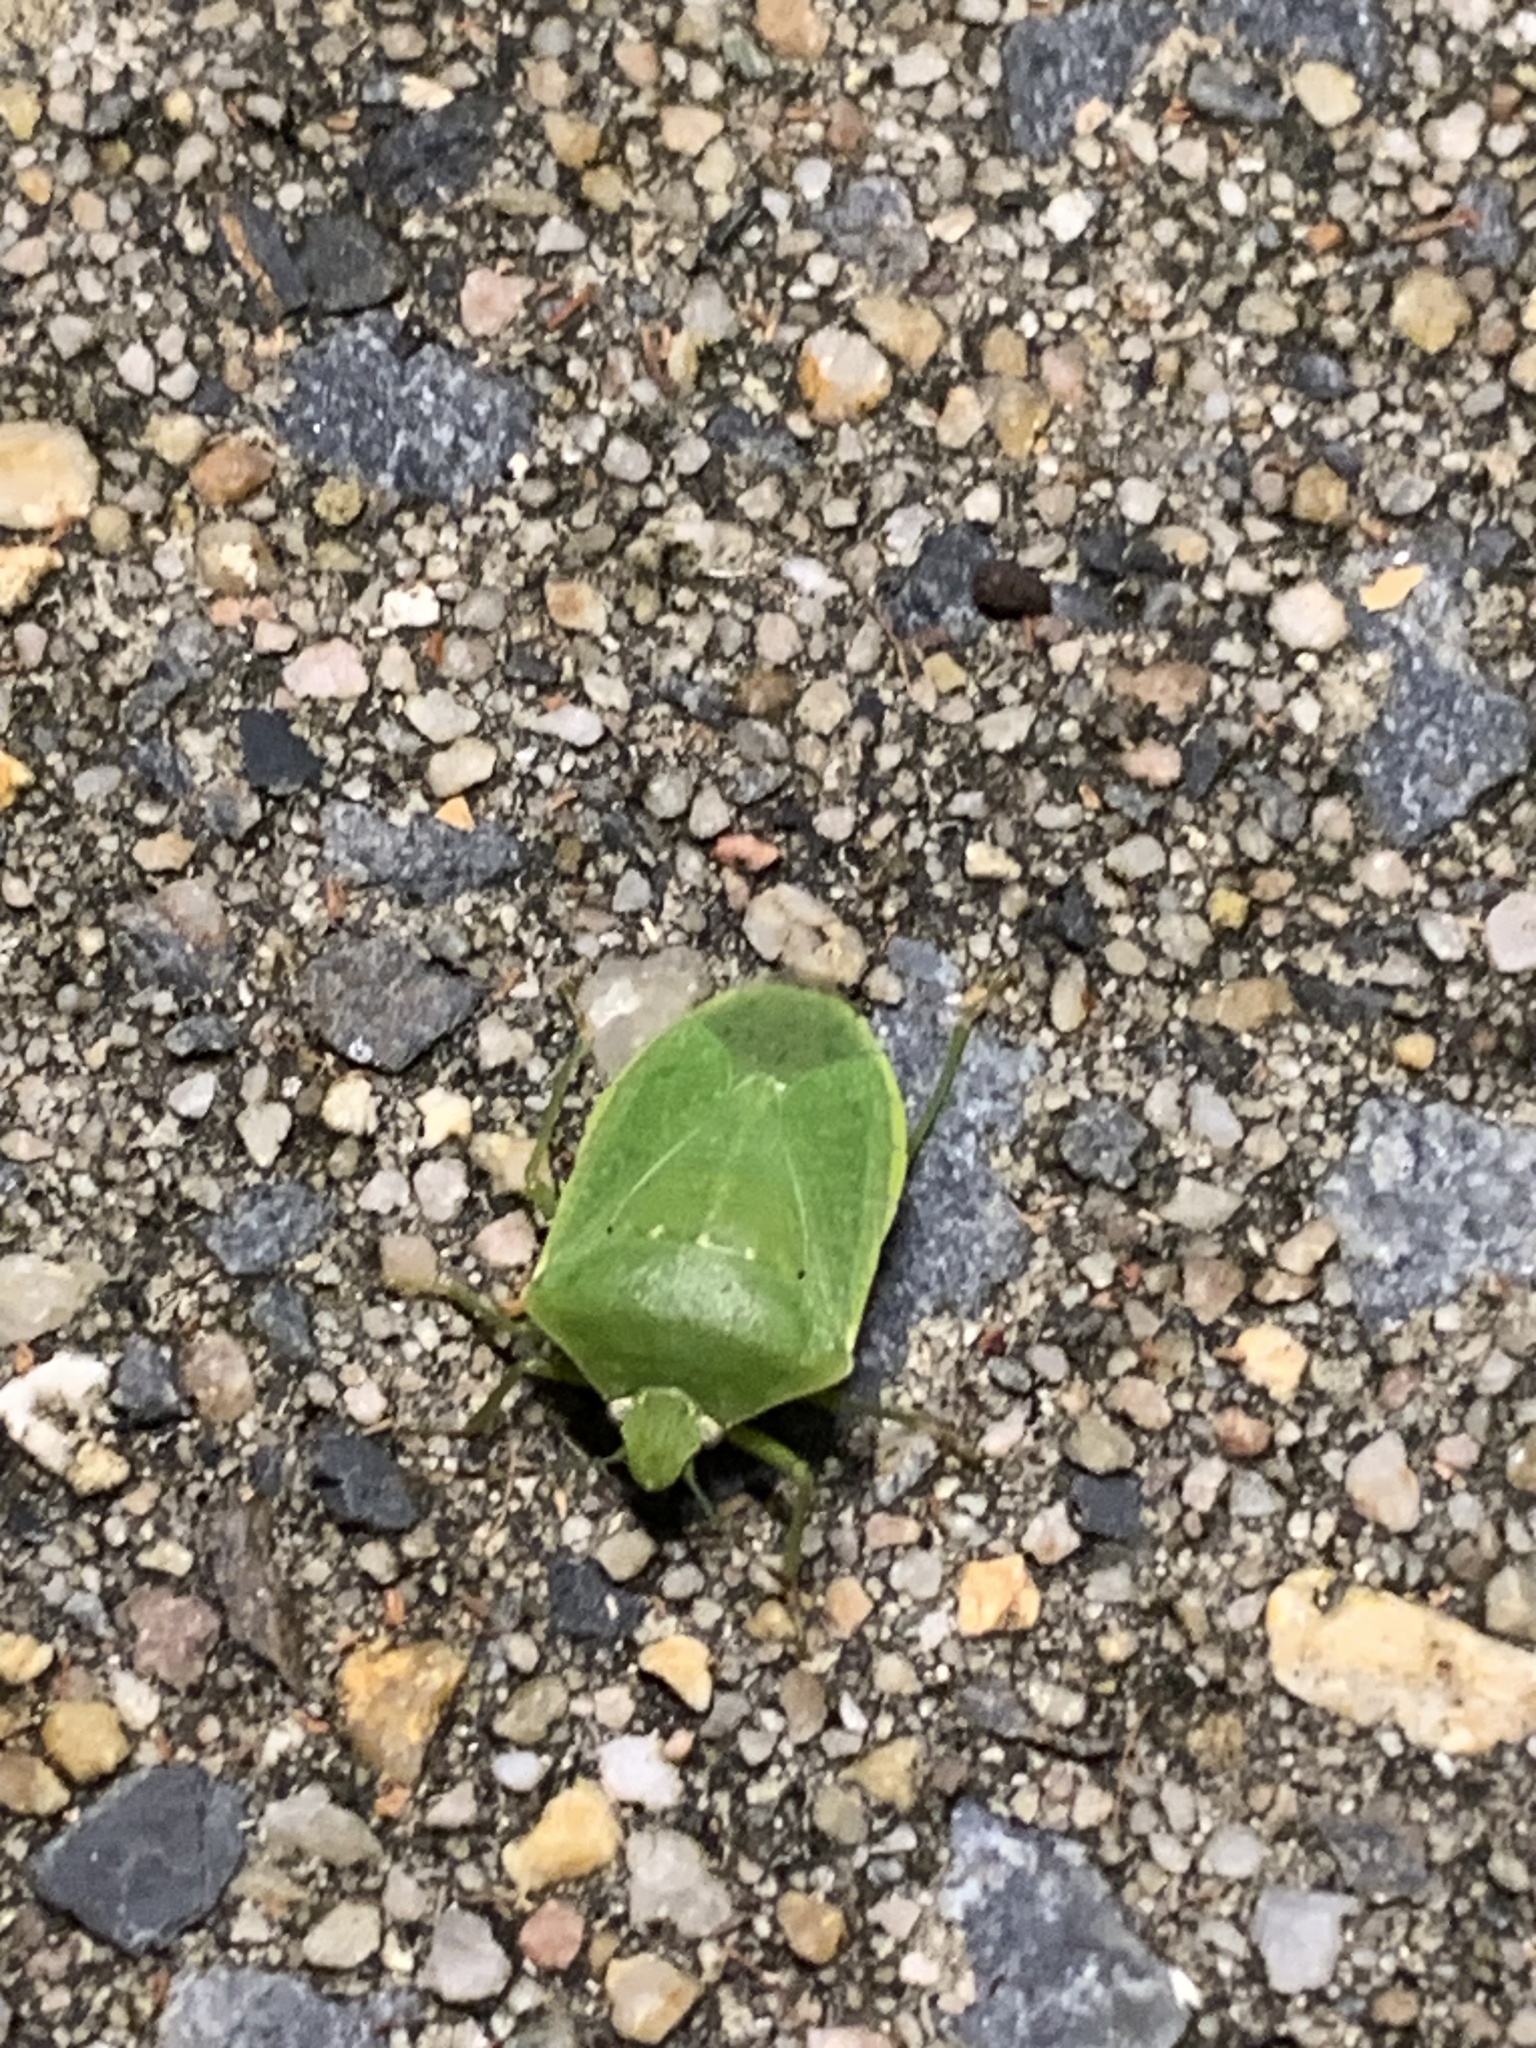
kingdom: Animalia
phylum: Arthropoda
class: Insecta
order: Hemiptera
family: Pentatomidae
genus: Nezara
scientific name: Nezara viridula
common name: Southern green stink bug
